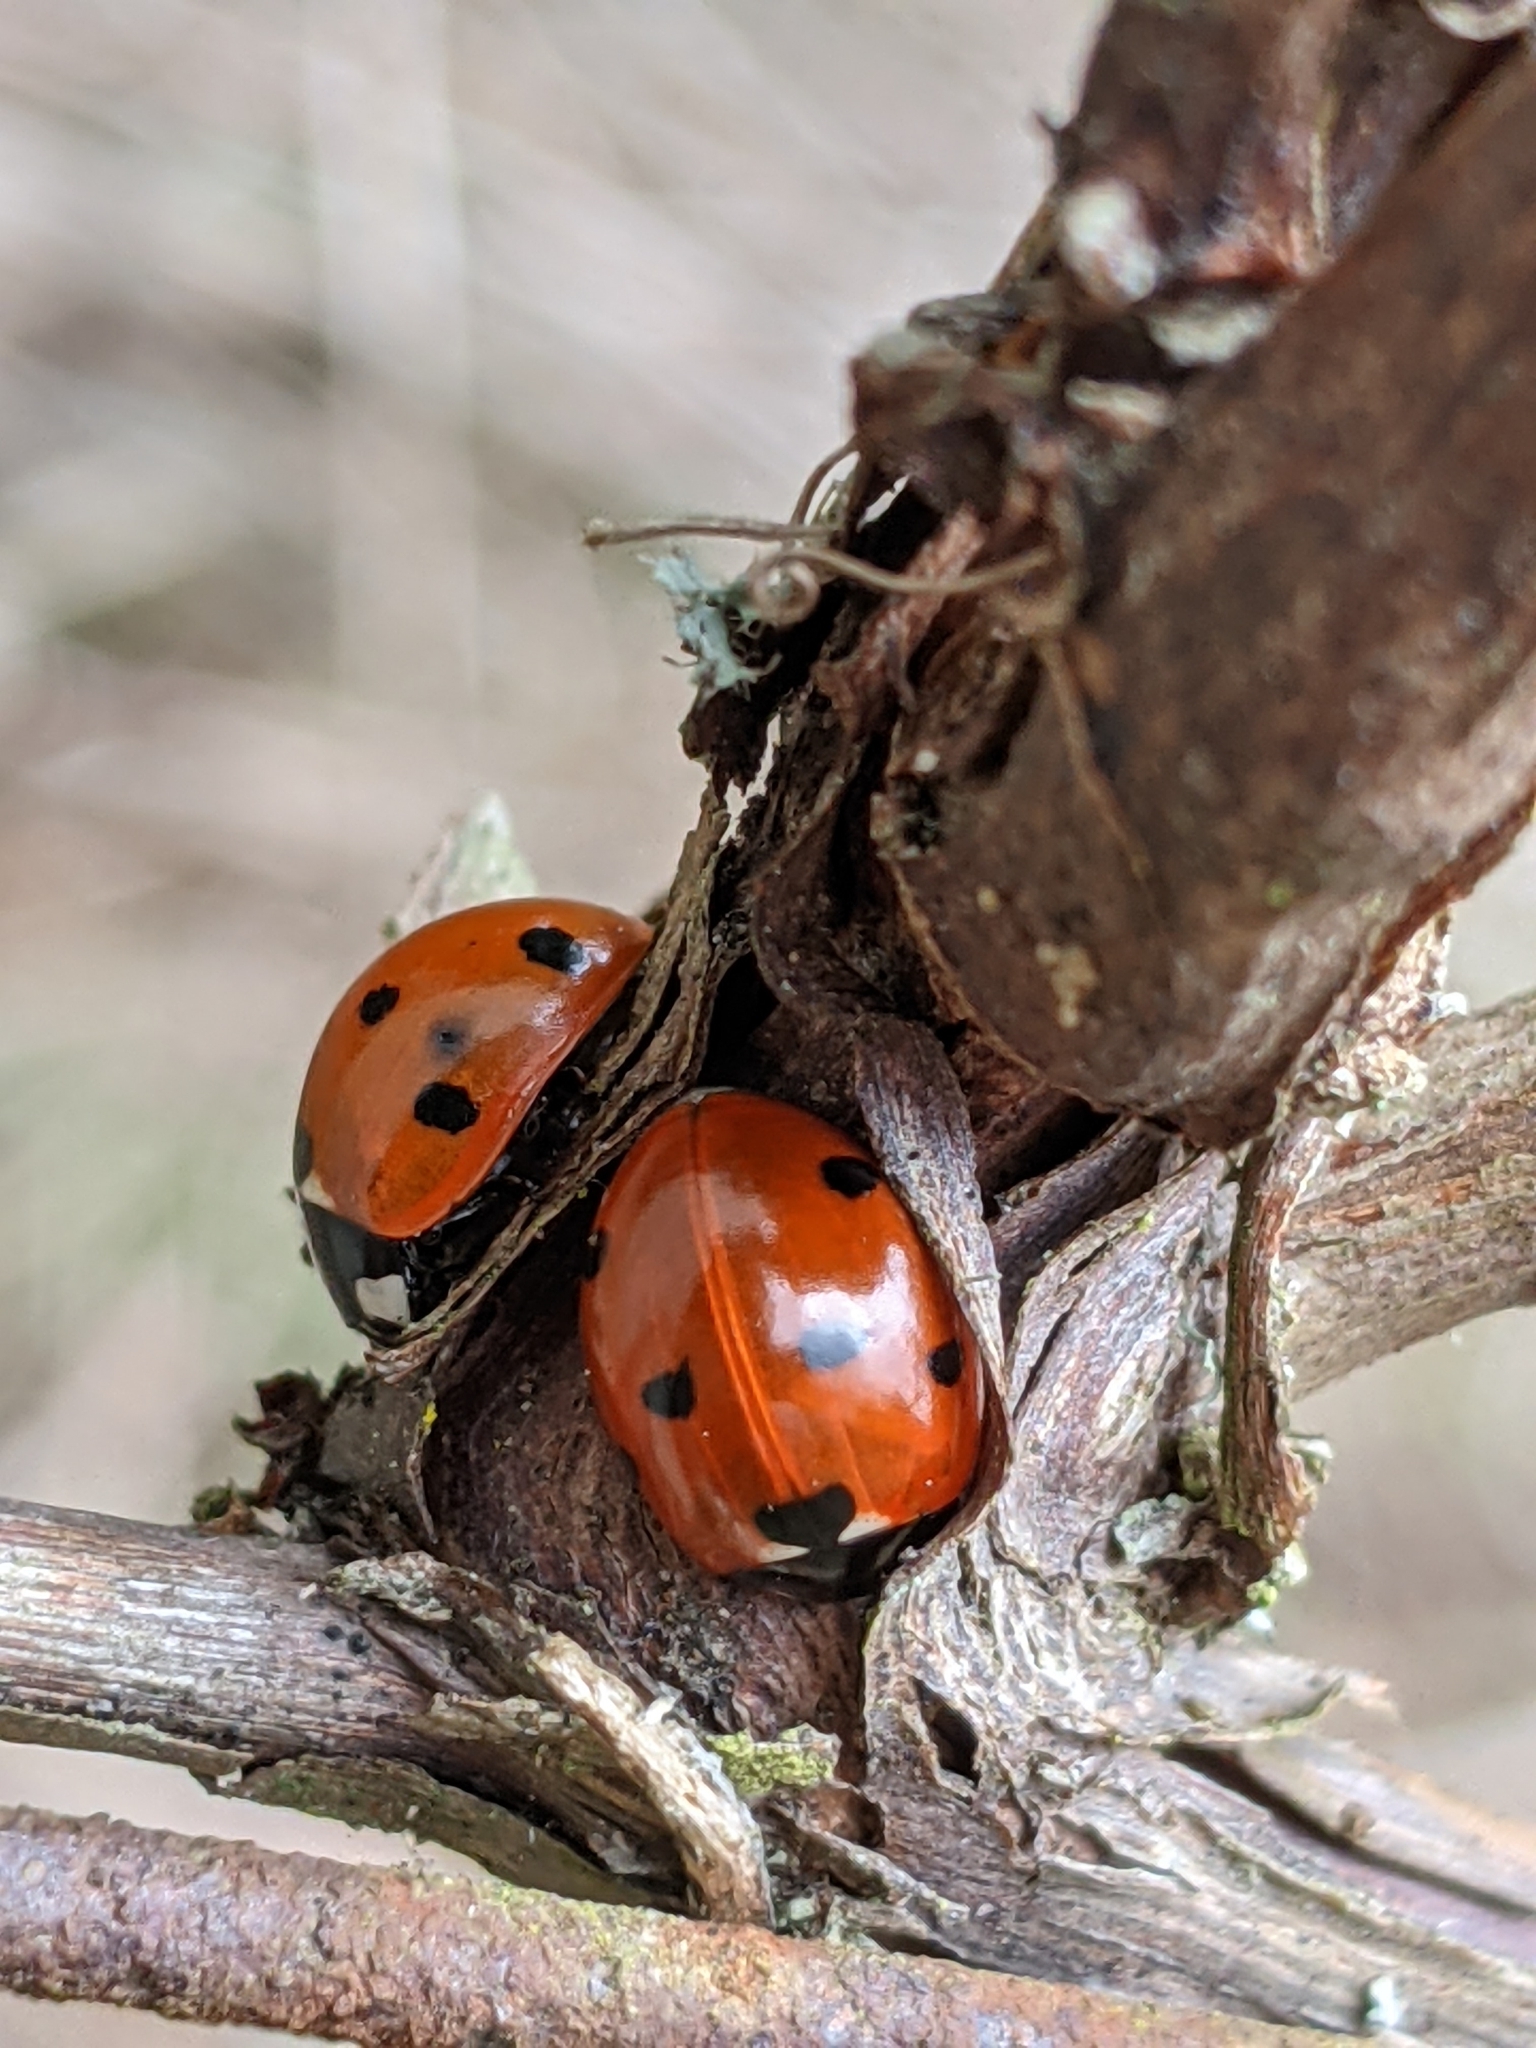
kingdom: Animalia
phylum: Arthropoda
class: Insecta
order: Coleoptera
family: Coccinellidae
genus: Coccinella
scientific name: Coccinella septempunctata
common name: Sevenspotted lady beetle
